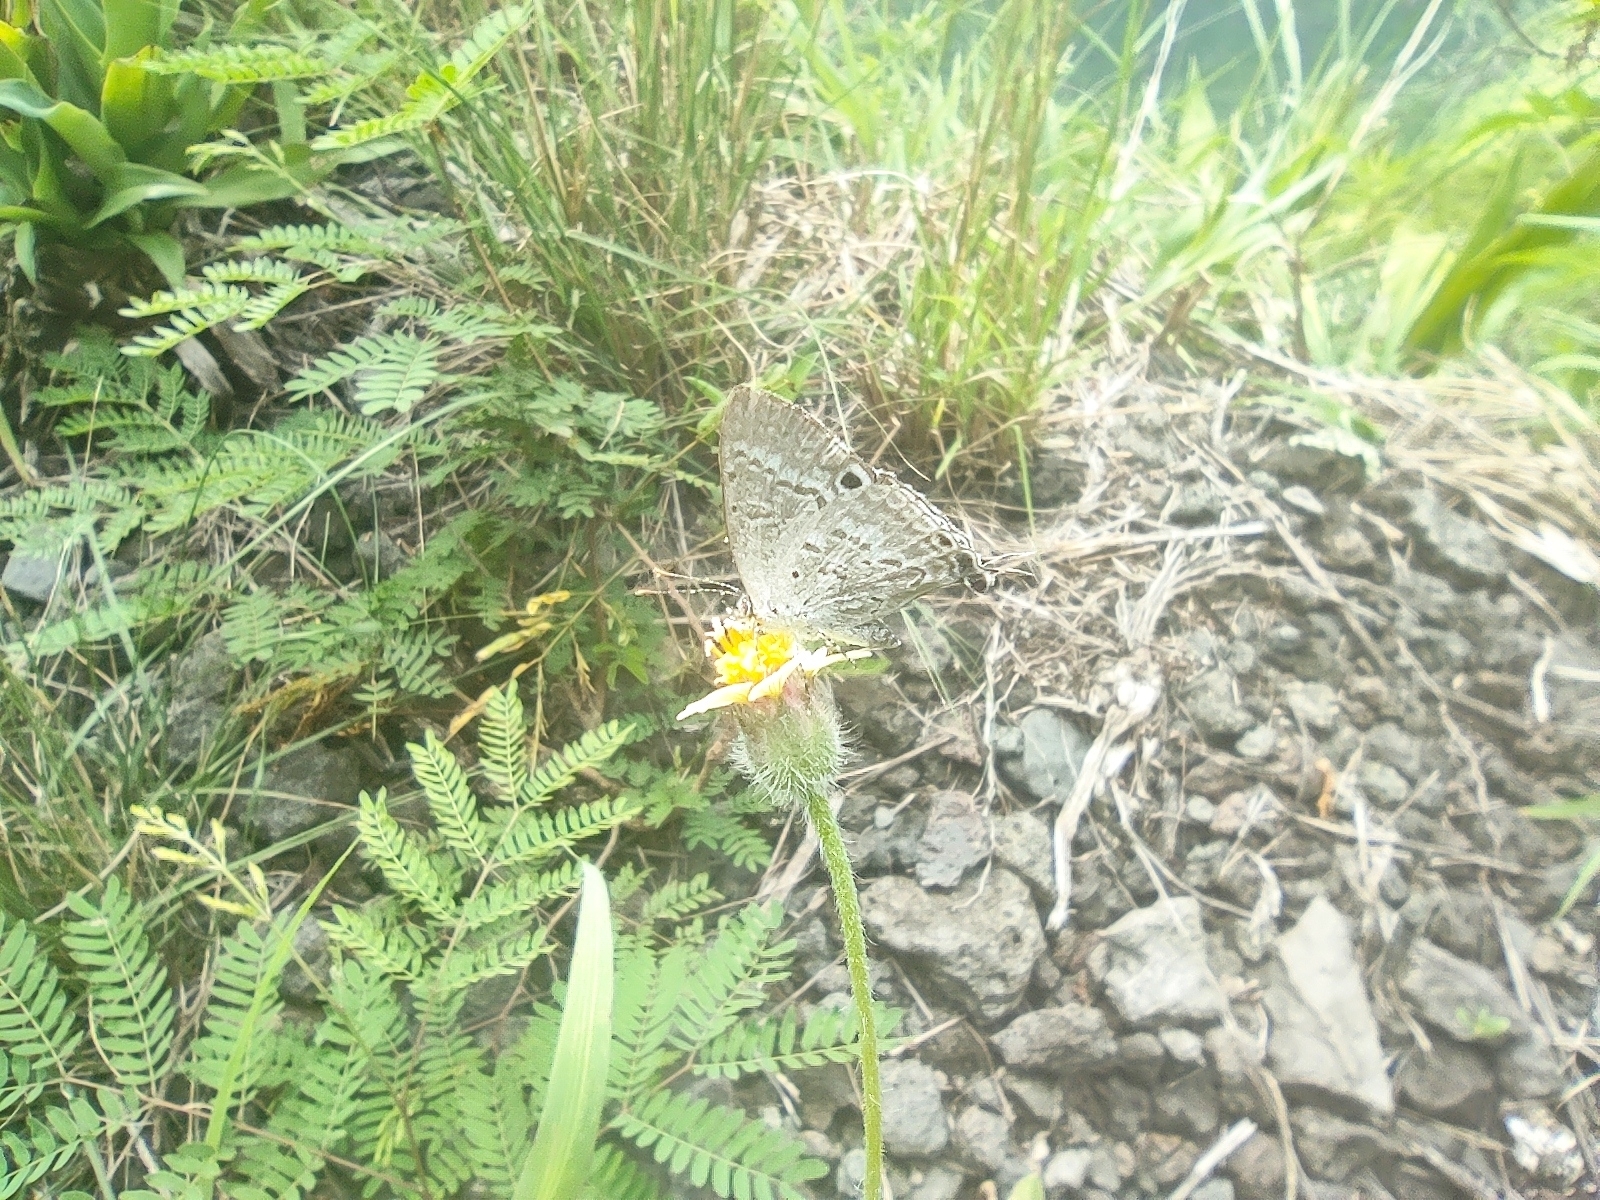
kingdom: Animalia
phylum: Arthropoda
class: Insecta
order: Lepidoptera
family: Lycaenidae
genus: Leptomyrina
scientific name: Leptomyrina phidias
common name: Madagascar black-eye
